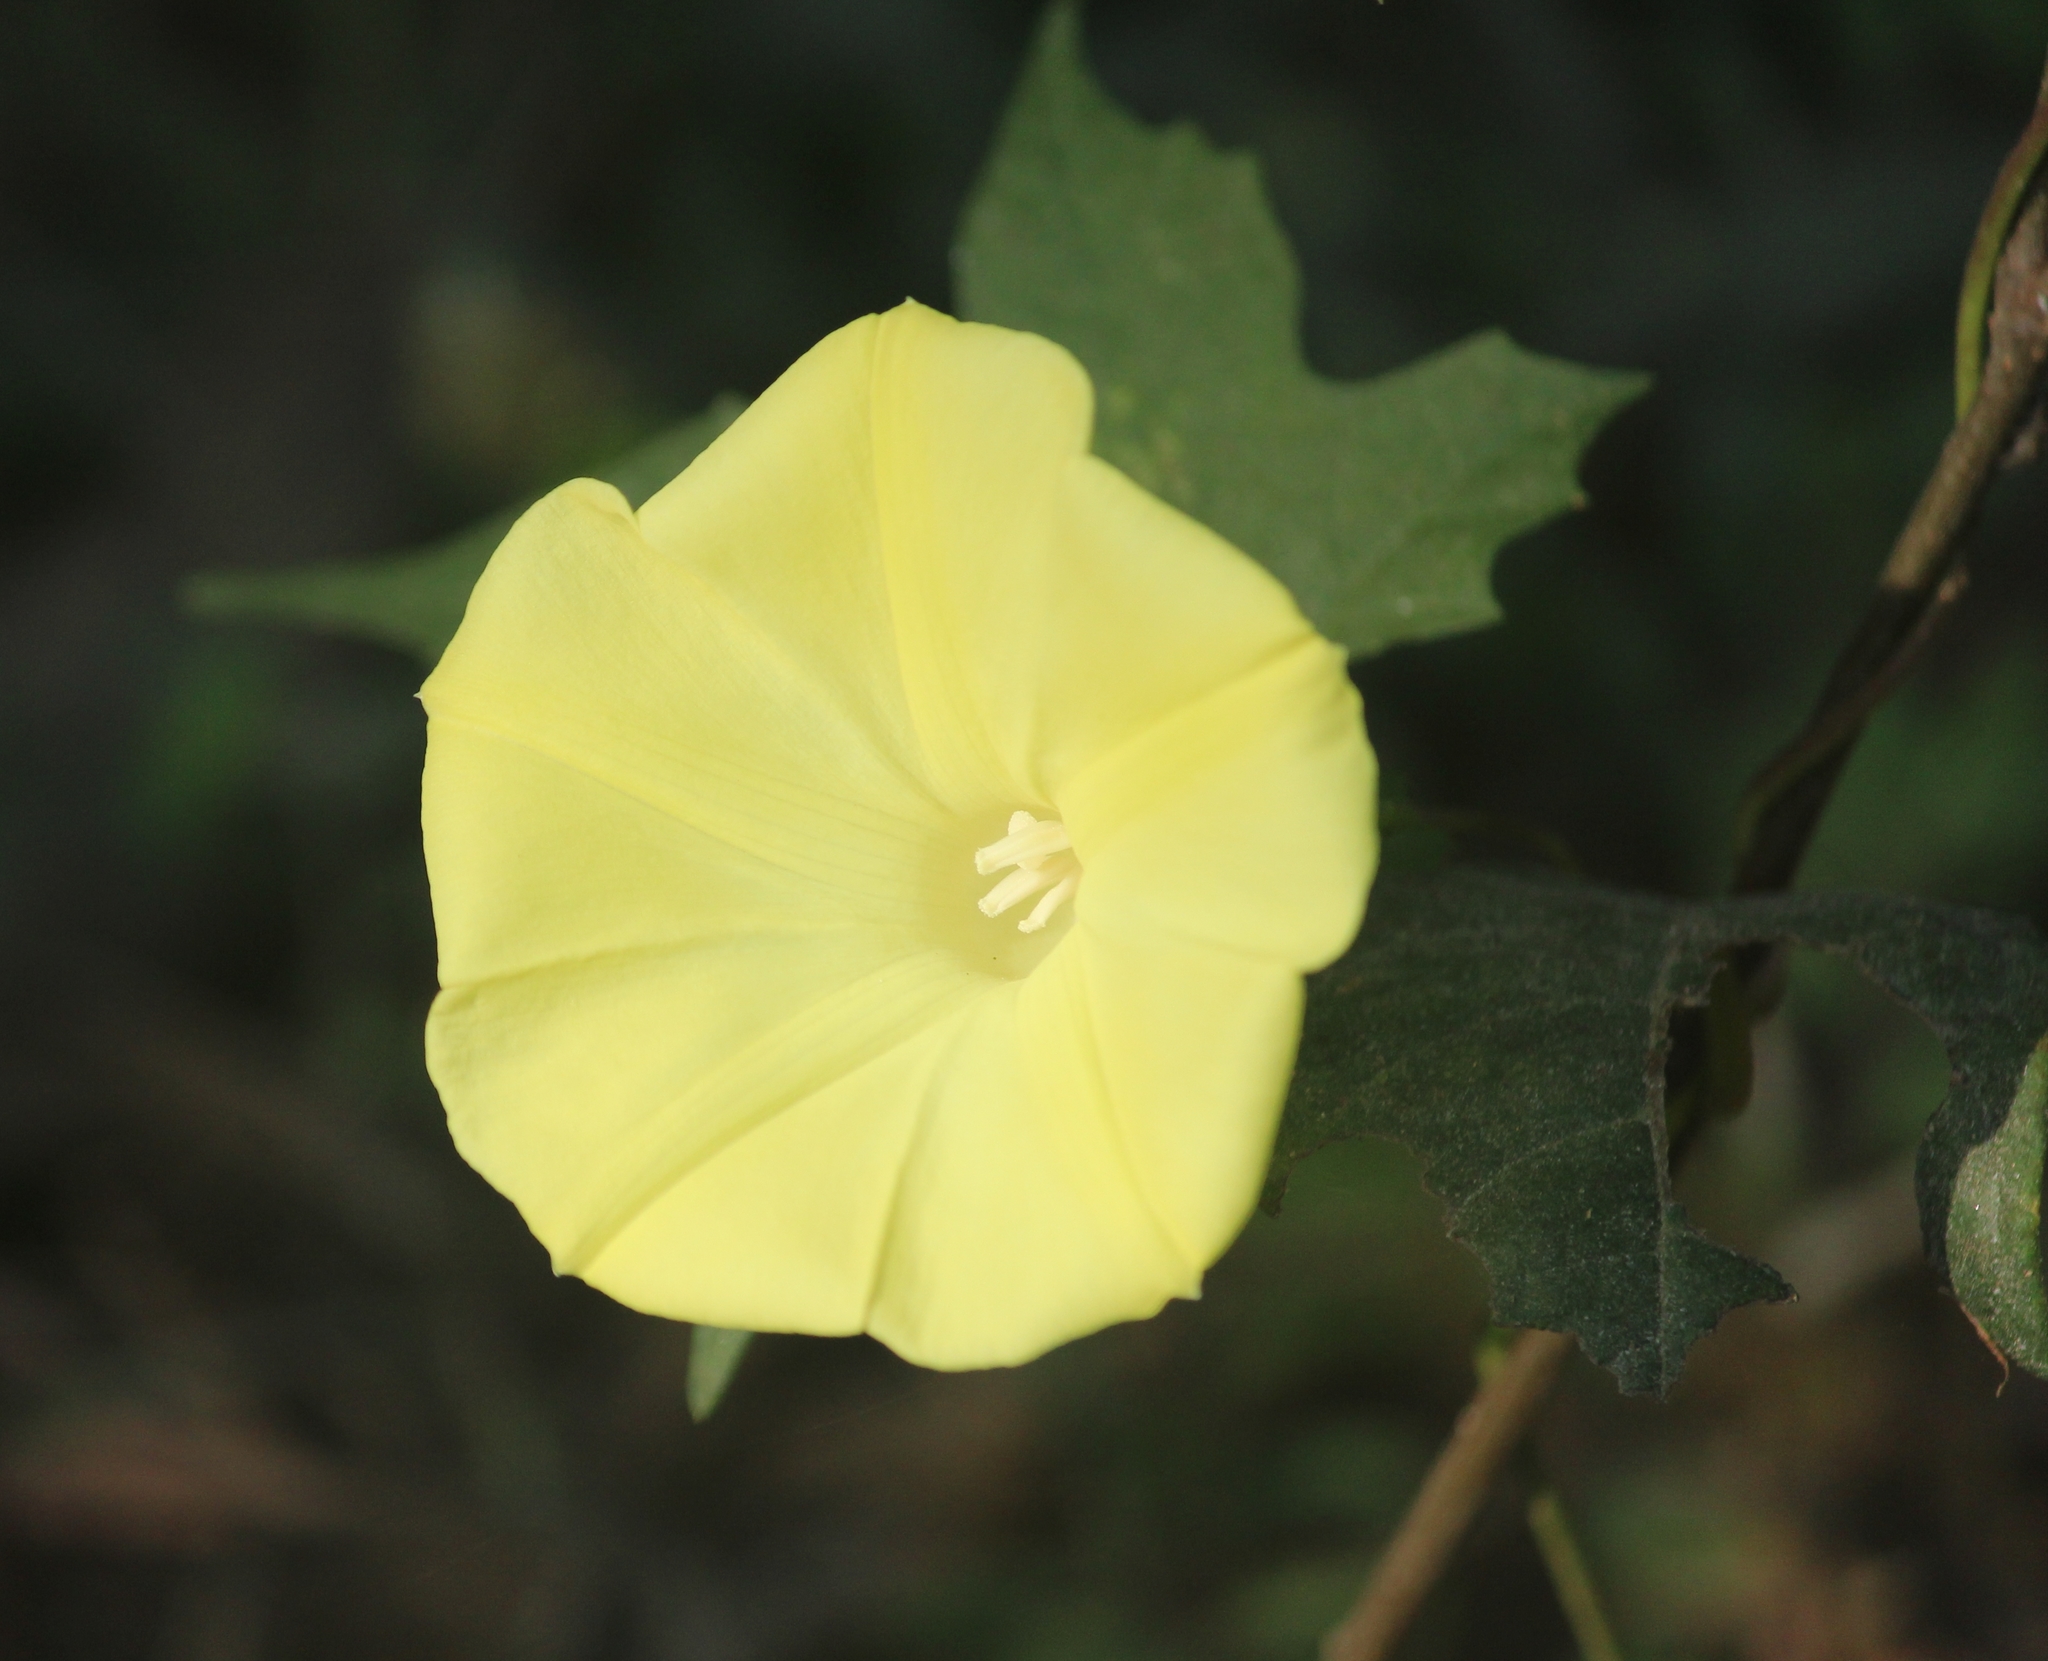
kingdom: Plantae
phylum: Tracheophyta
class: Magnoliopsida
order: Solanales
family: Convolvulaceae
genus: Distimake
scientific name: Distimake
